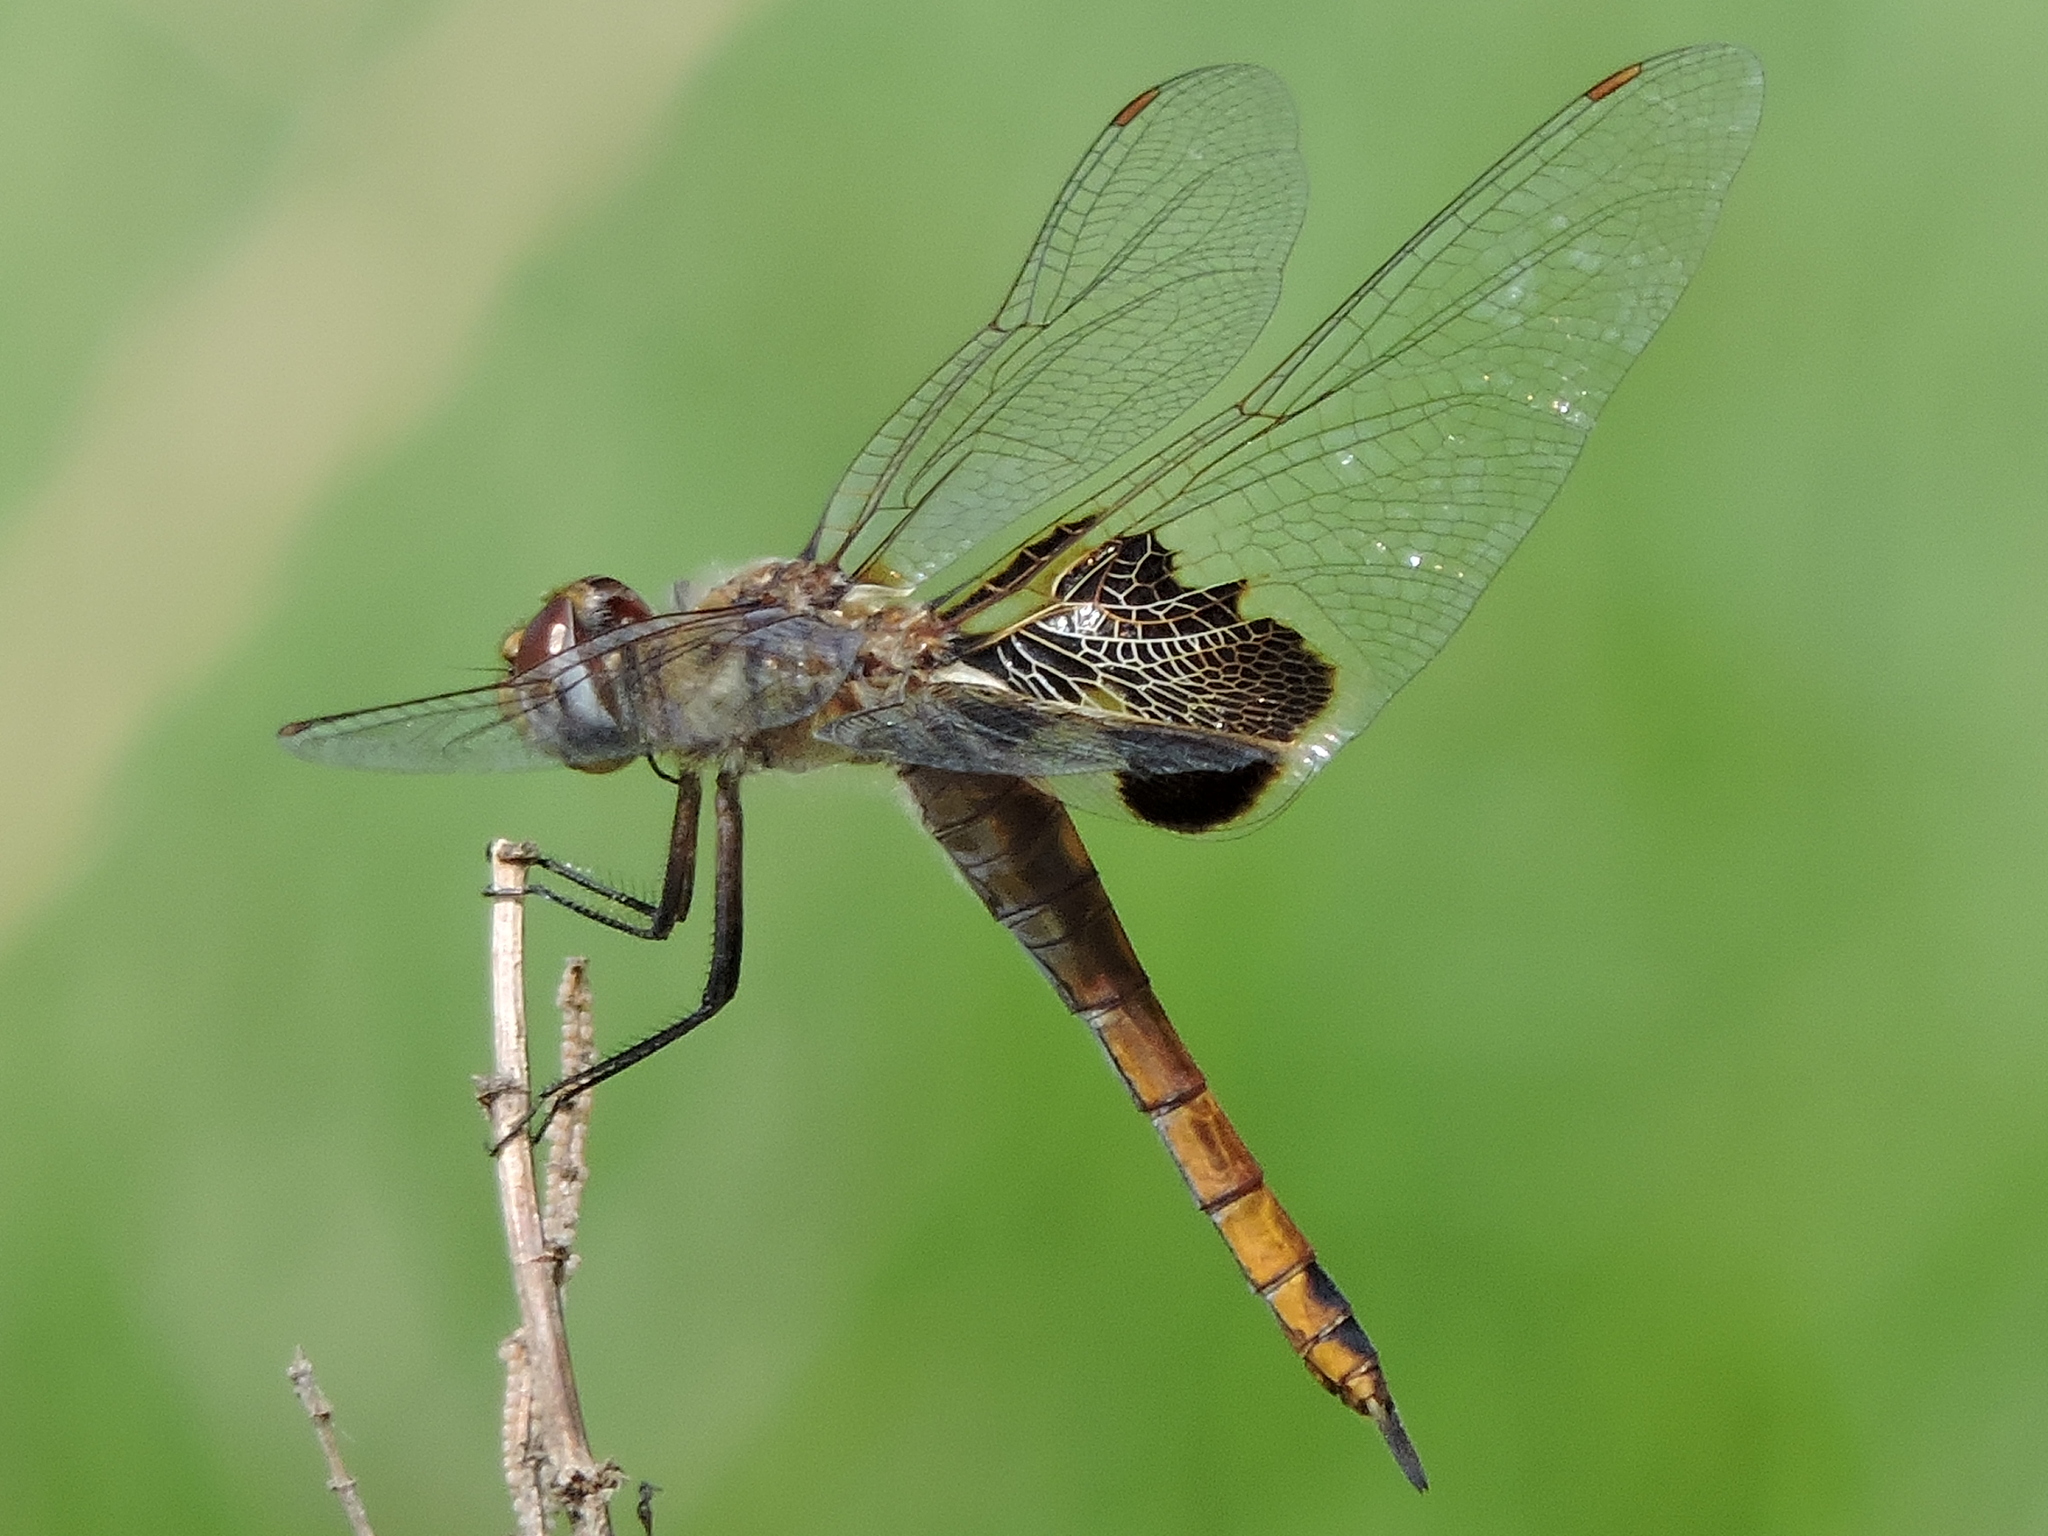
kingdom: Animalia
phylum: Arthropoda
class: Insecta
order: Odonata
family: Libellulidae
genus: Tramea
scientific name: Tramea onusta
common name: Red saddlebags
